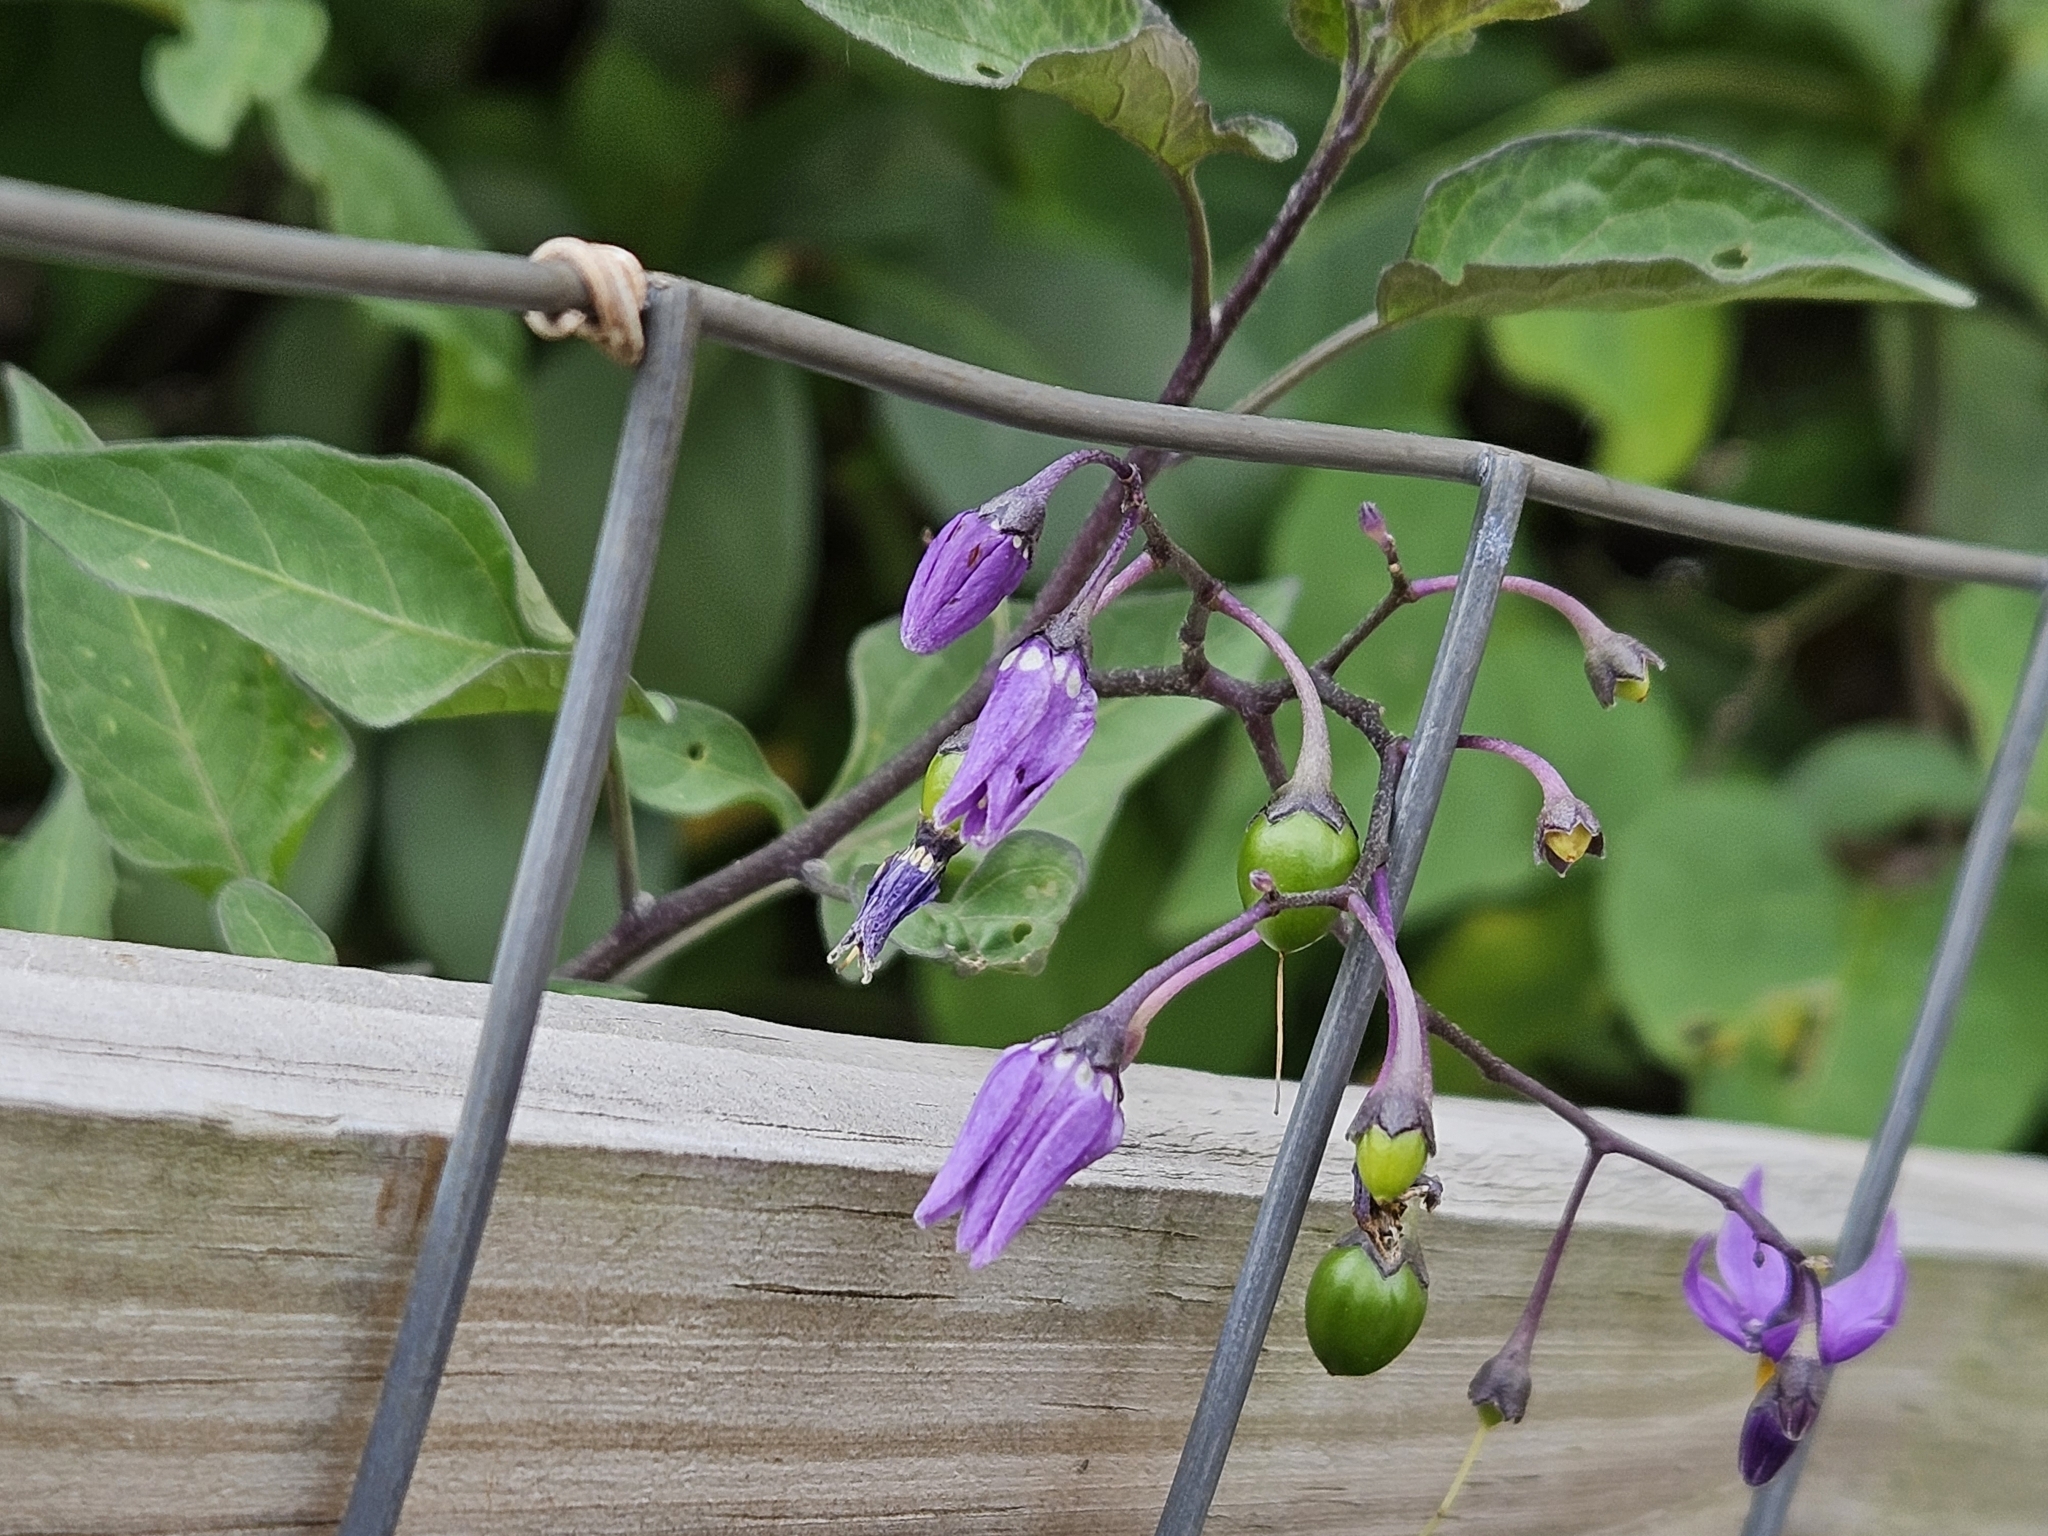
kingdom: Plantae
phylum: Tracheophyta
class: Magnoliopsida
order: Solanales
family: Solanaceae
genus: Solanum
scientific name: Solanum dulcamara
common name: Climbing nightshade
